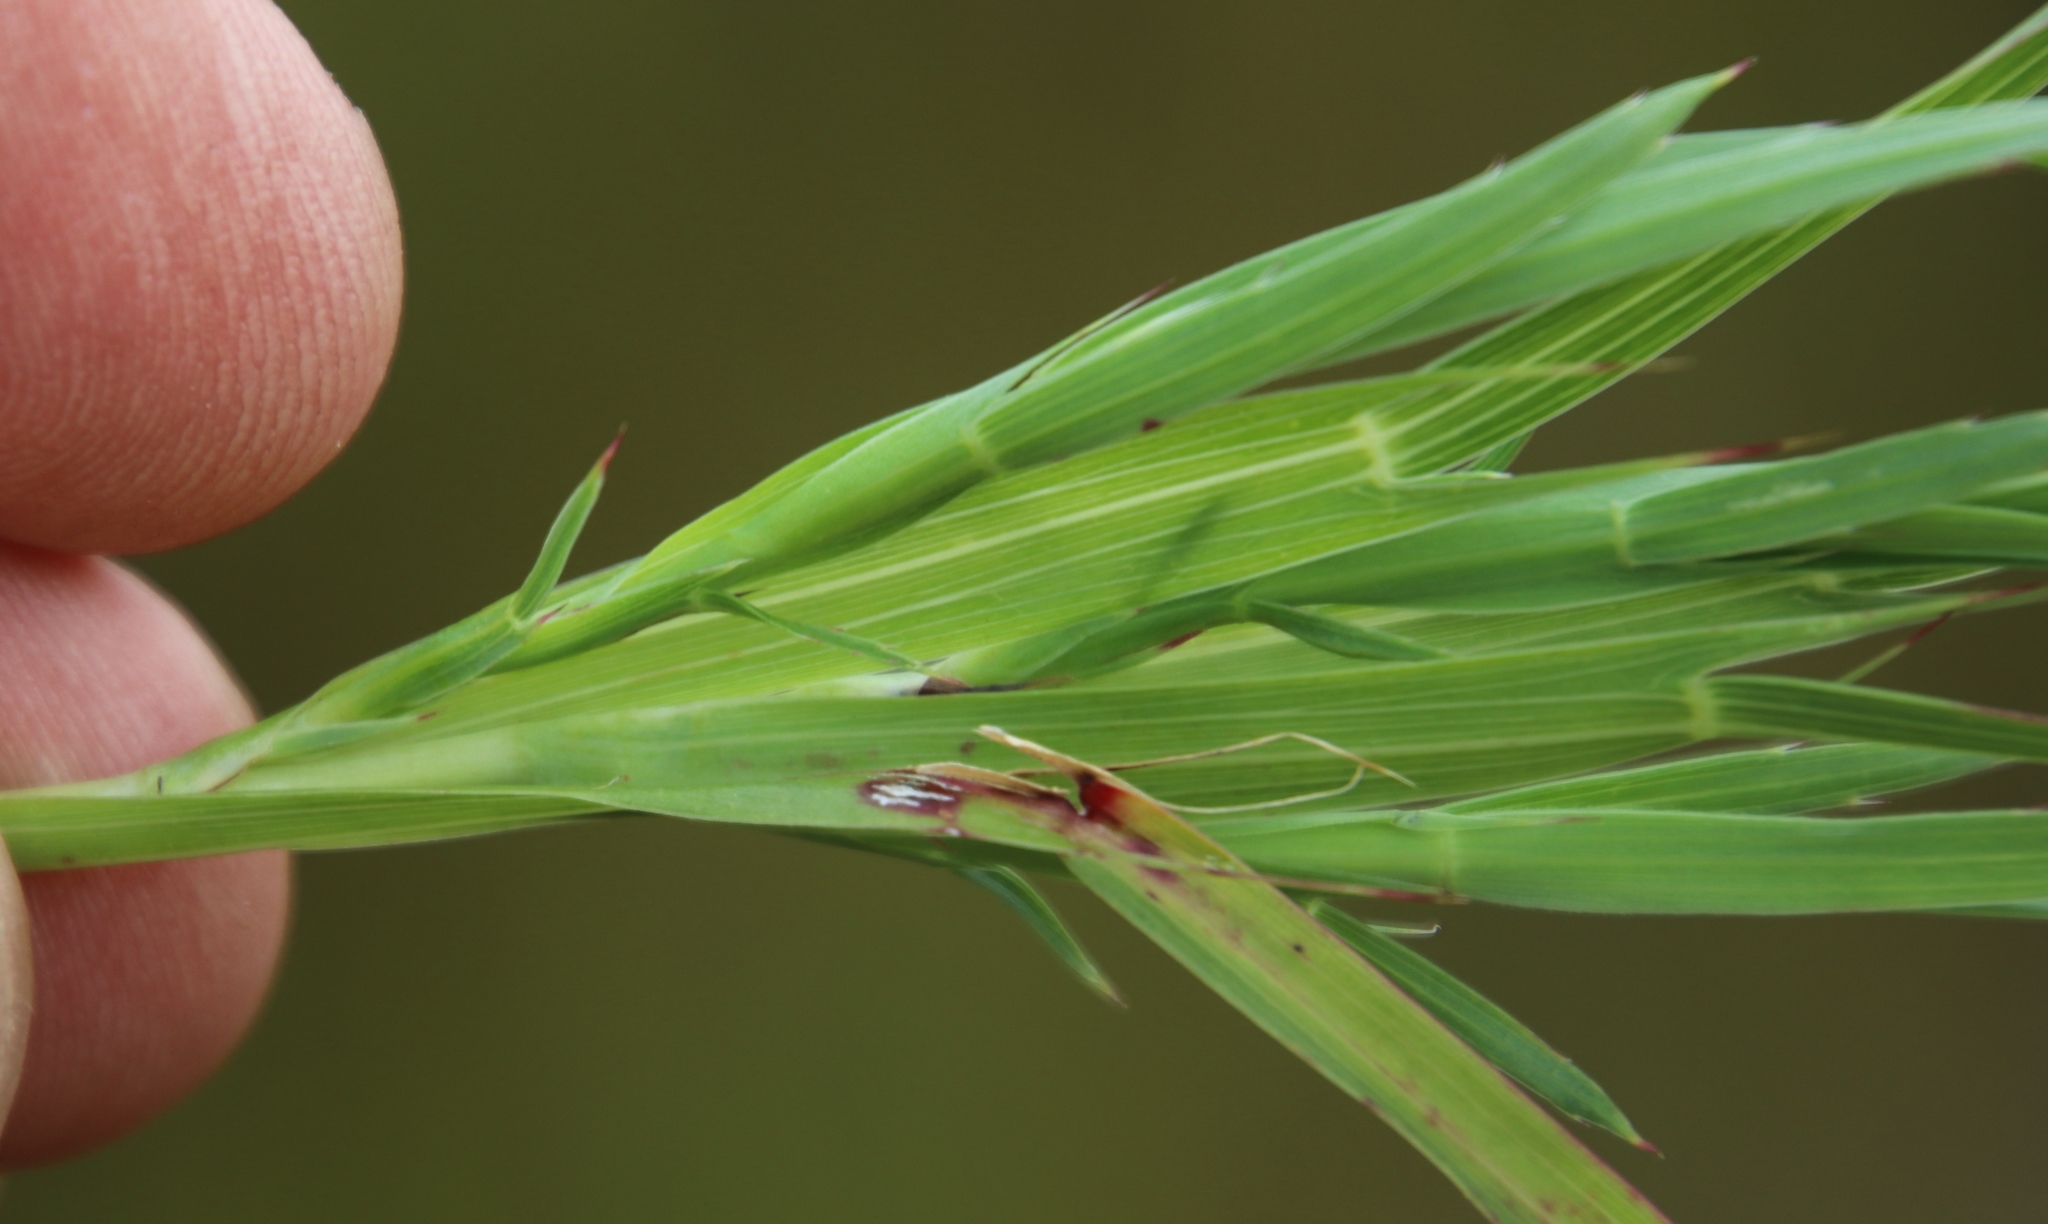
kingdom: Plantae
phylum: Tracheophyta
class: Magnoliopsida
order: Rosales
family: Rosaceae
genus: Cliffortia
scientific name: Cliffortia graminea
